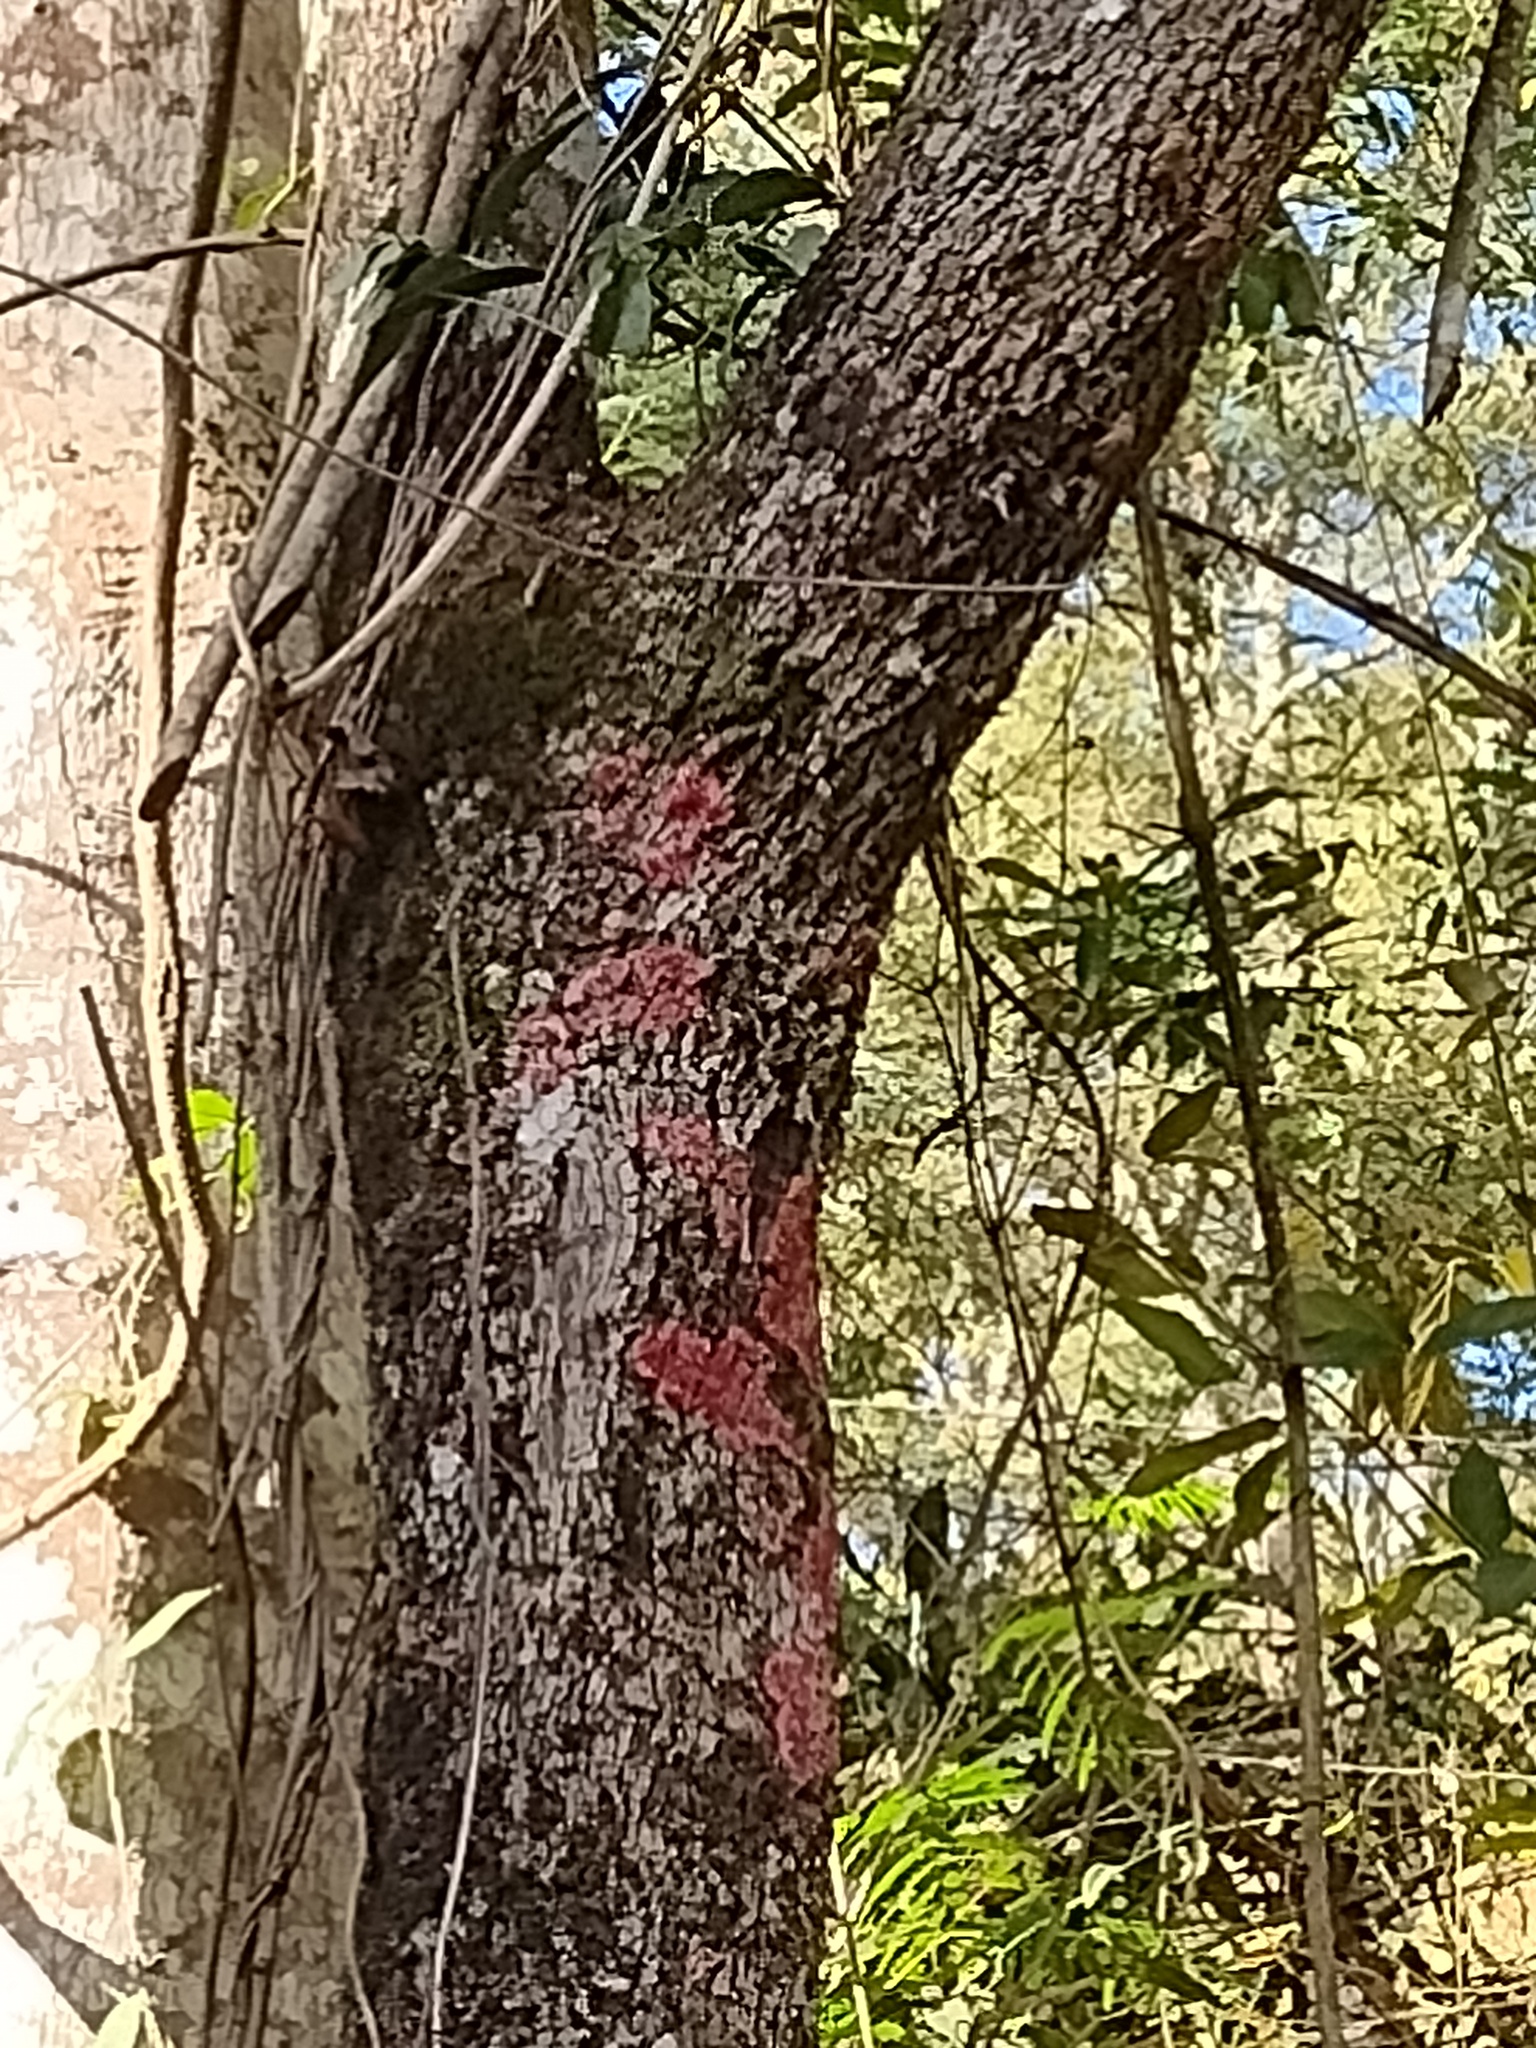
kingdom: Fungi
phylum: Ascomycota
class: Arthoniomycetes
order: Arthoniales
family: Arthoniaceae
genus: Herpothallon
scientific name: Herpothallon rubrocinctum
